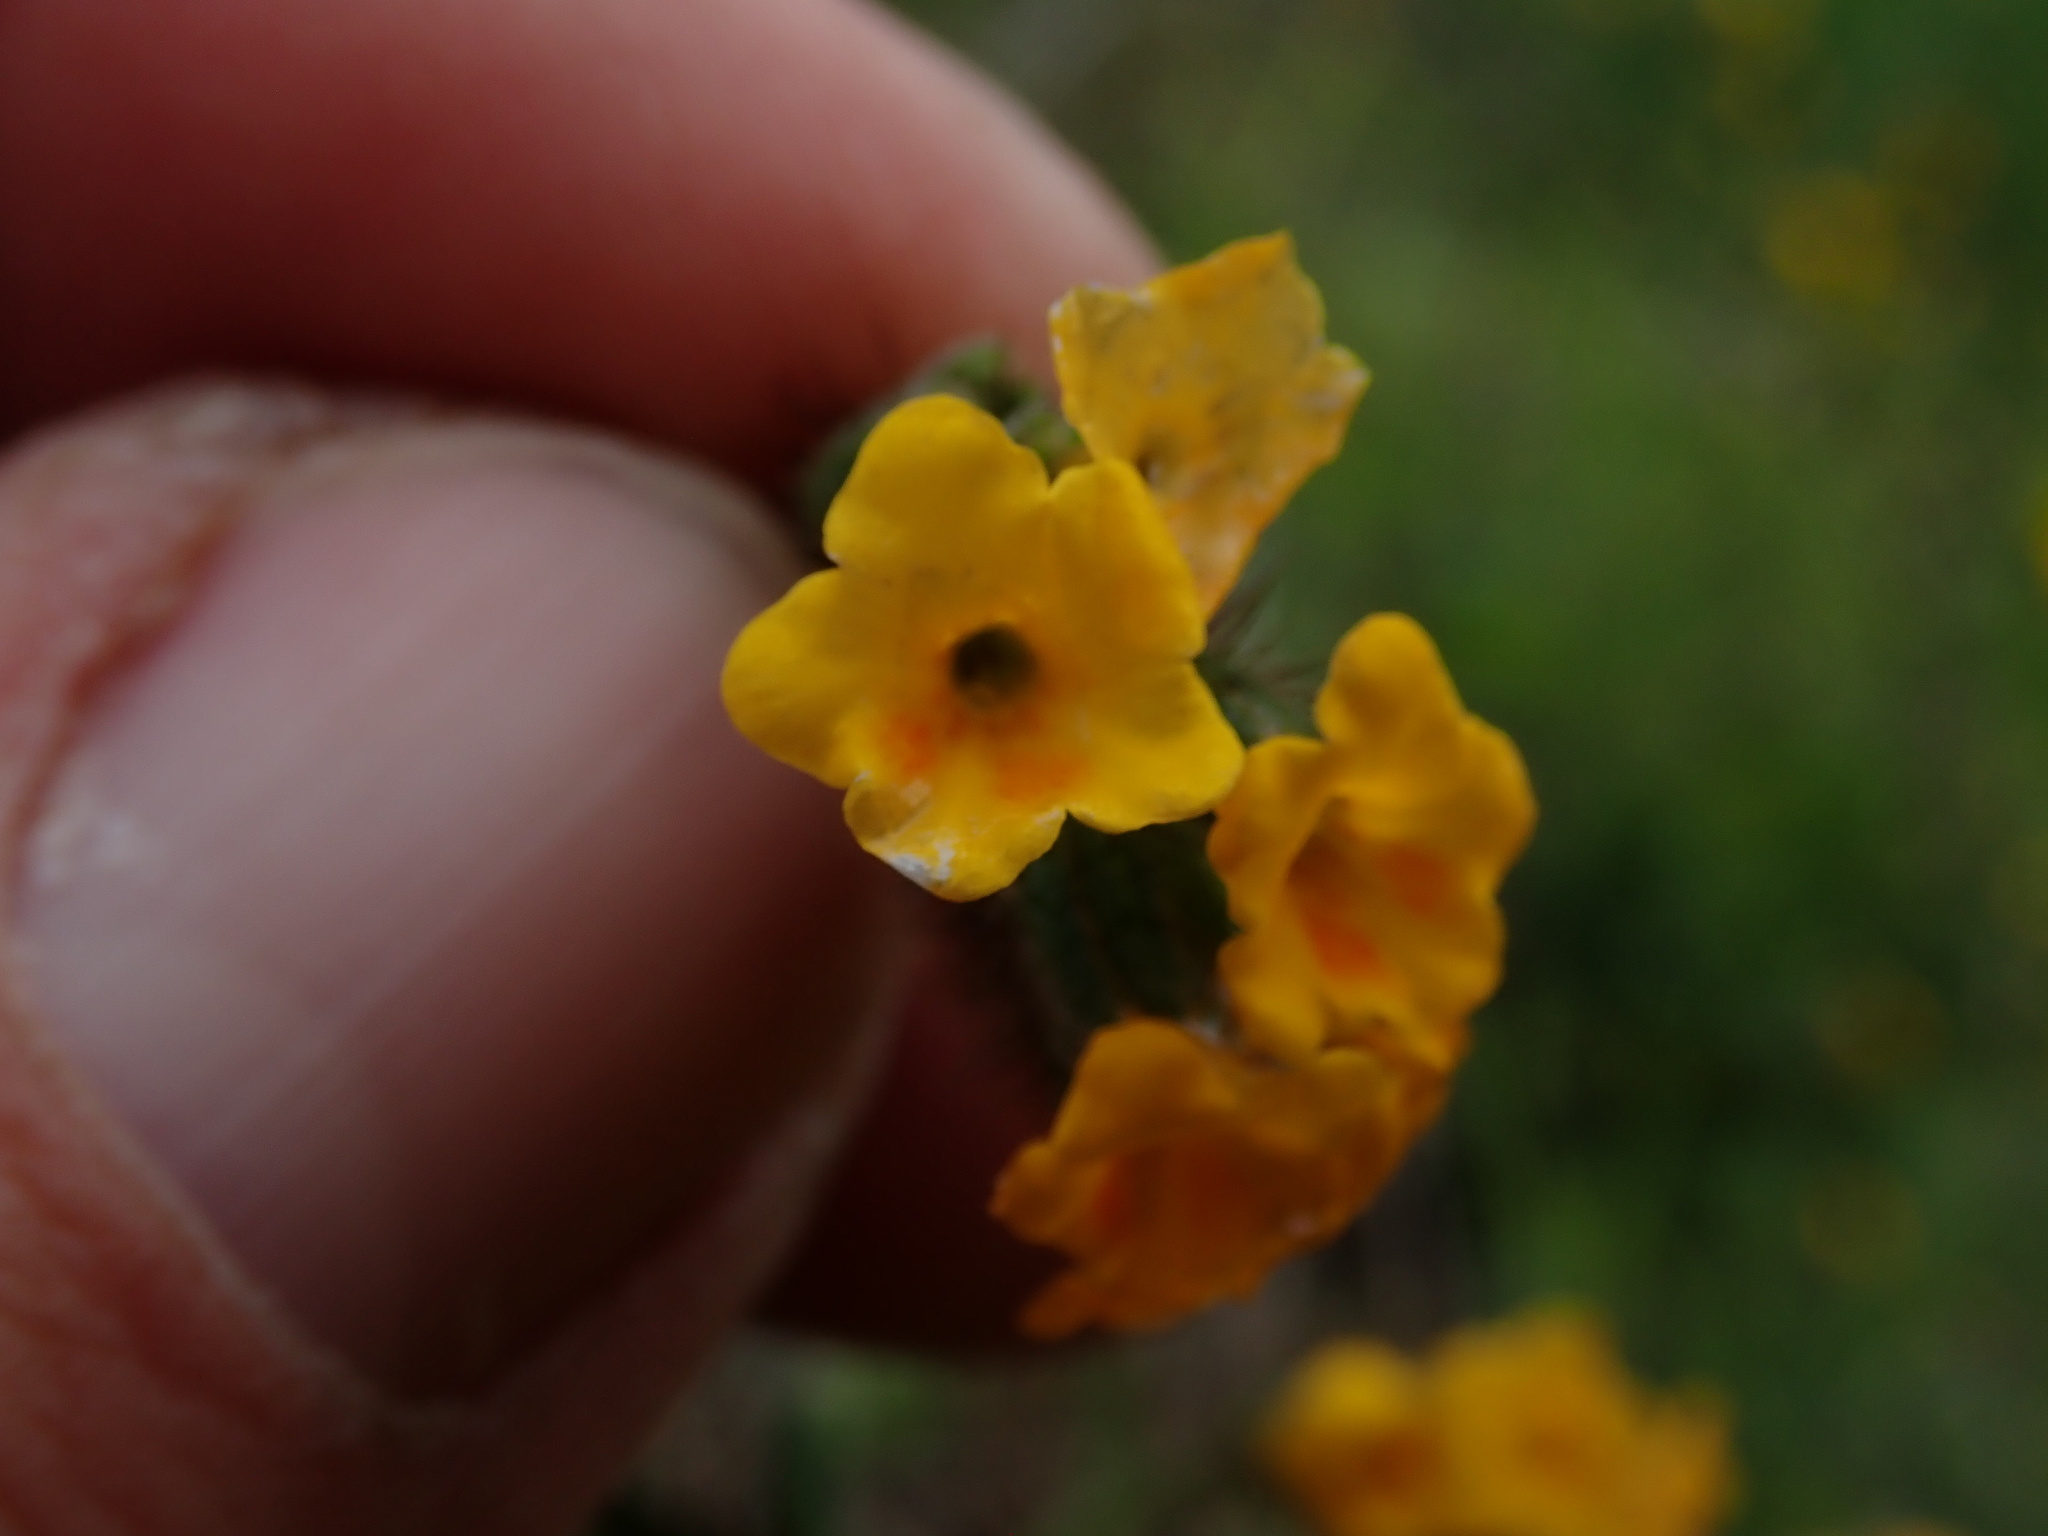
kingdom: Plantae
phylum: Tracheophyta
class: Magnoliopsida
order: Boraginales
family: Boraginaceae
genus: Amsinckia
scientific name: Amsinckia lunaris
